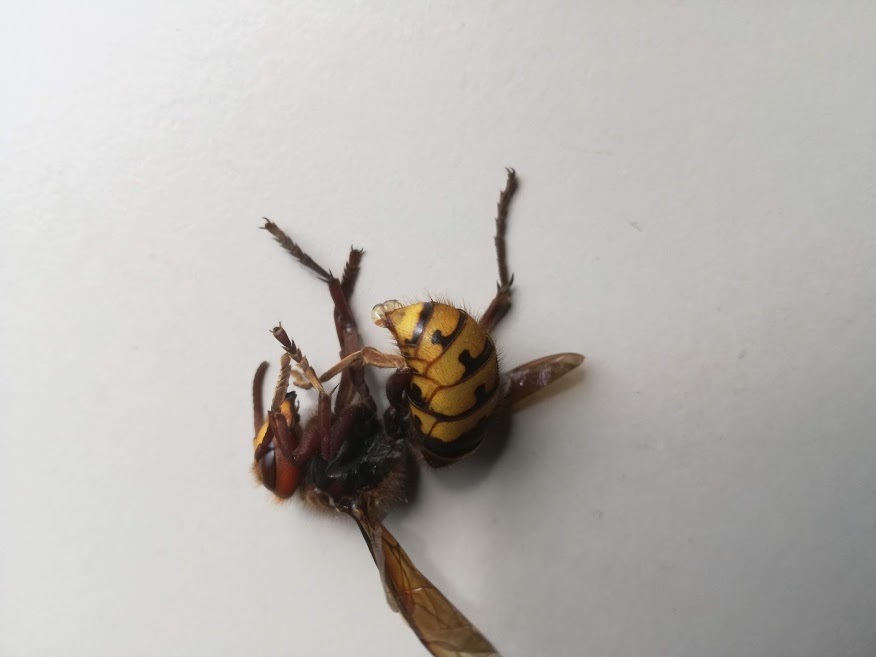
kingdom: Animalia
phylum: Arthropoda
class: Insecta
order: Hymenoptera
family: Vespidae
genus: Vespa
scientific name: Vespa crabro
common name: Hornet
